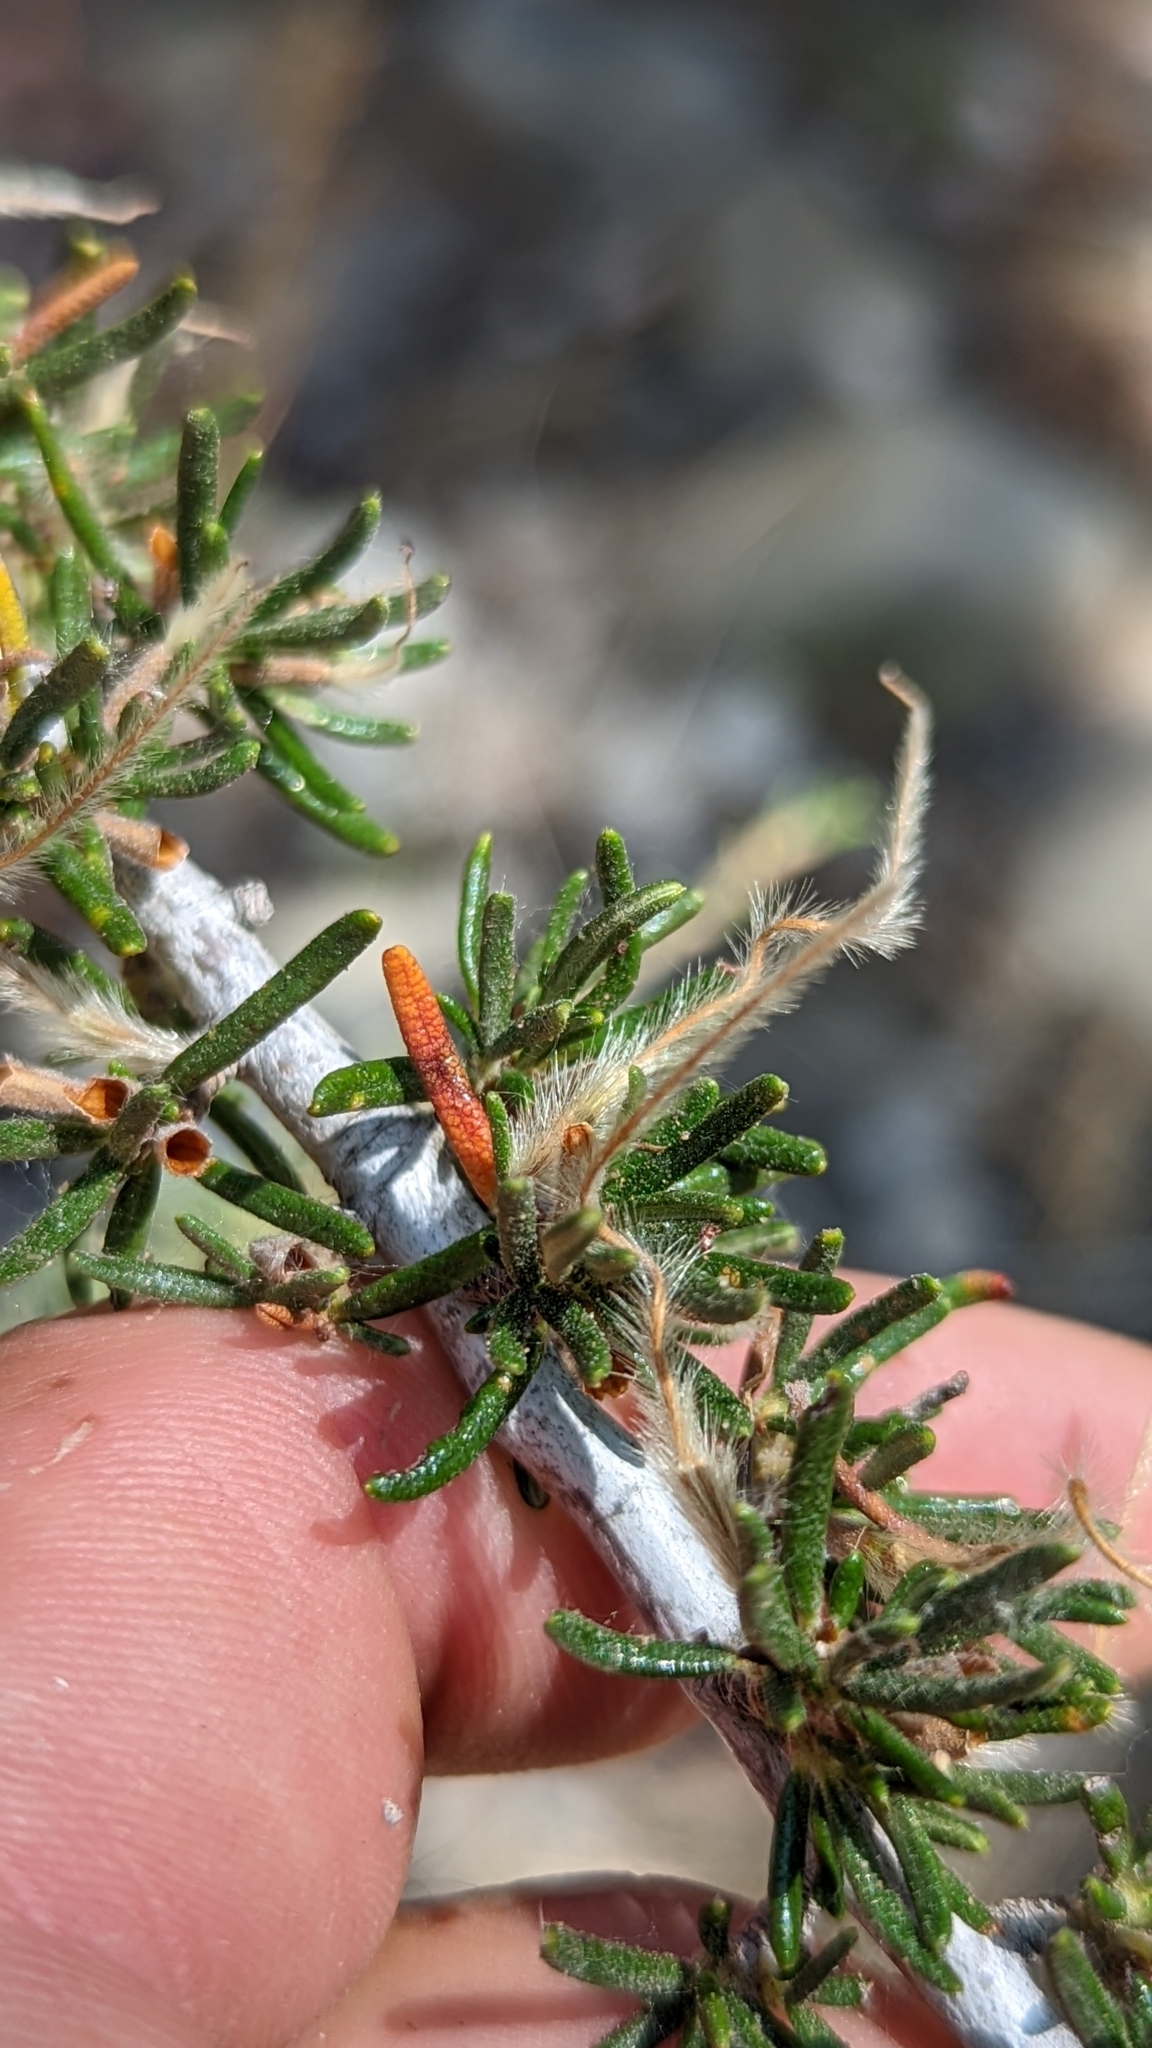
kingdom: Plantae
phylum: Tracheophyta
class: Magnoliopsida
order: Rosales
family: Rosaceae
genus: Cercocarpus
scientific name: Cercocarpus intricatus
